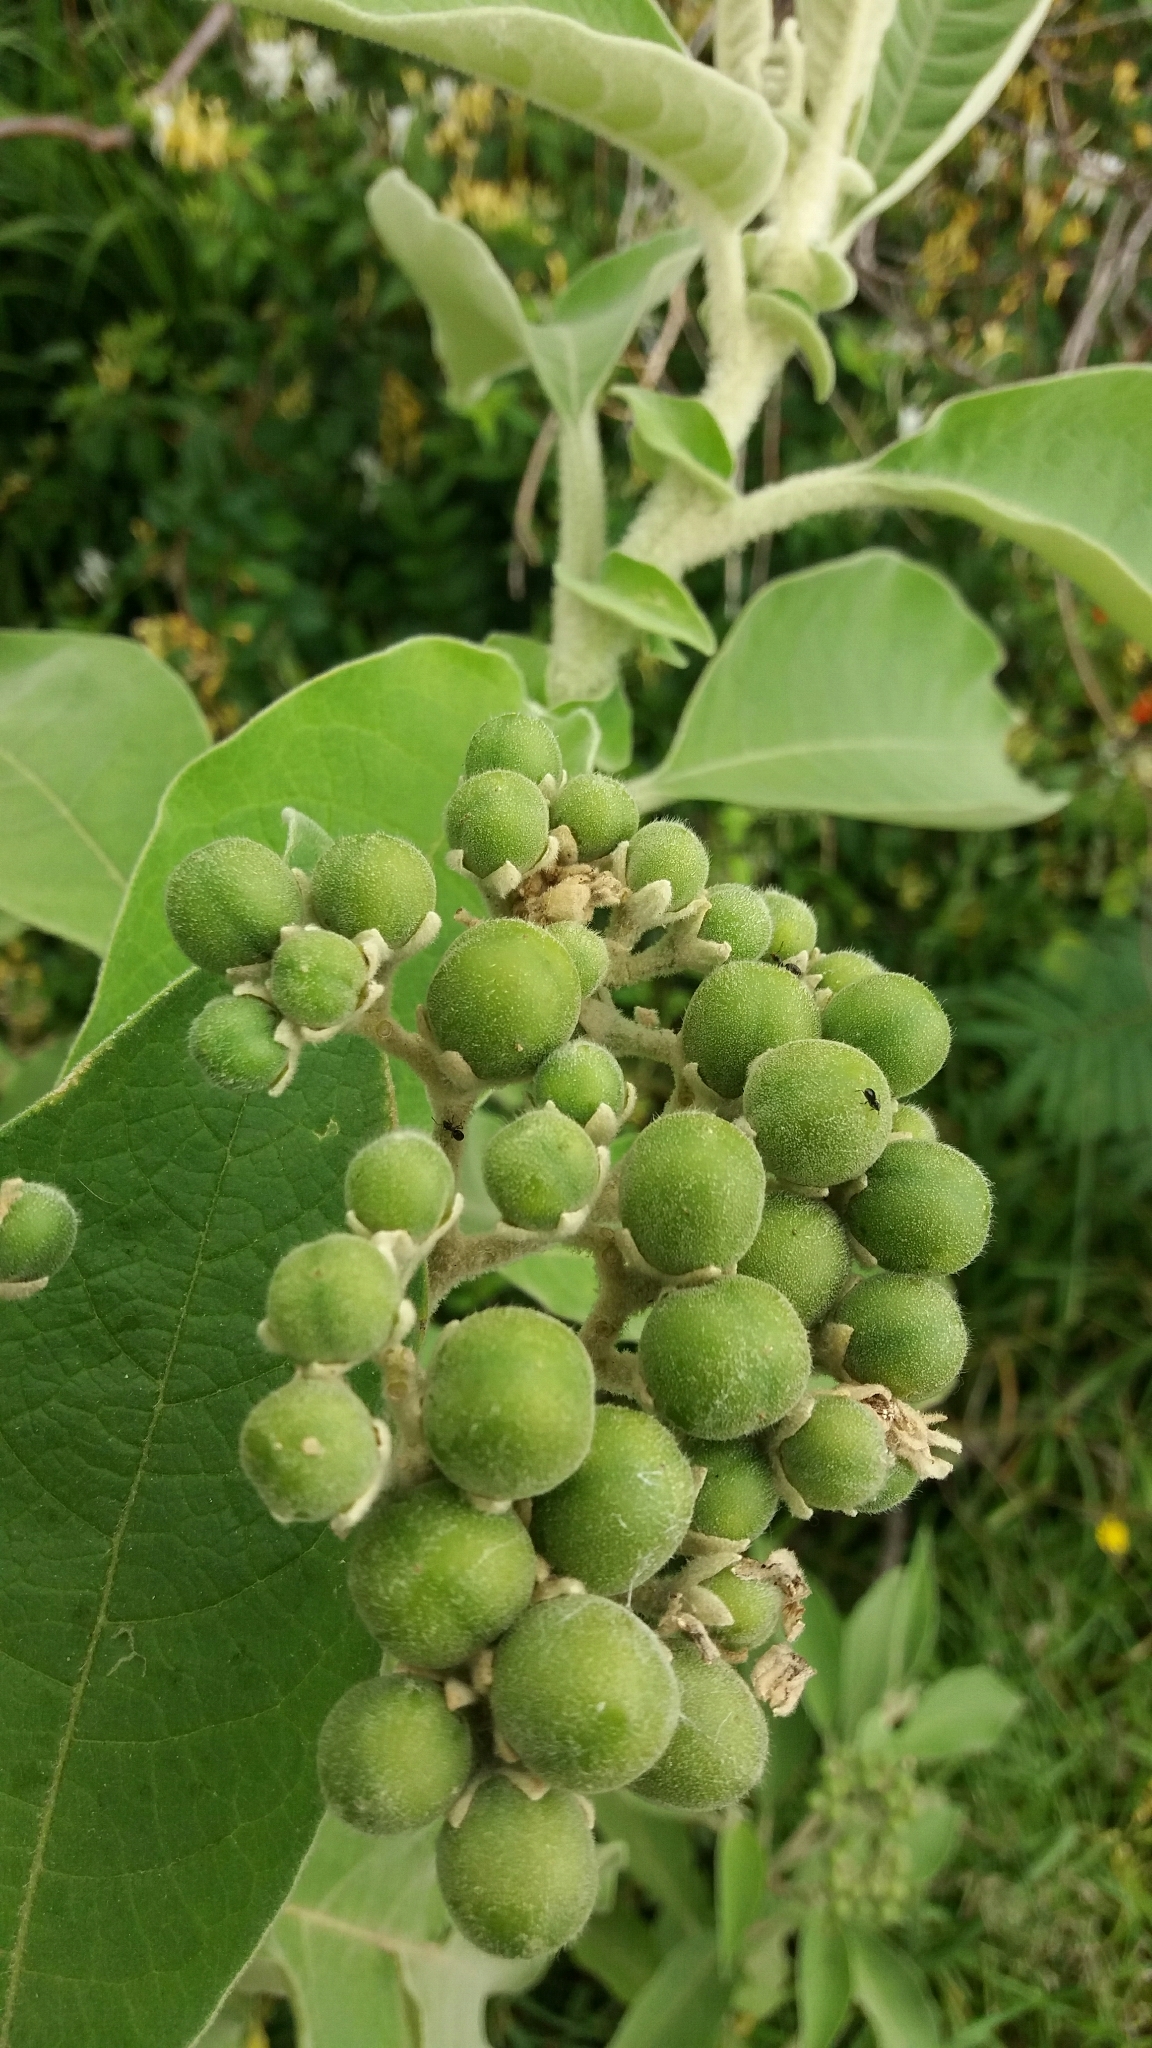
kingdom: Plantae
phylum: Tracheophyta
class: Magnoliopsida
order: Solanales
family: Solanaceae
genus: Solanum
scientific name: Solanum mauritianum
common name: Earleaf nightshade
